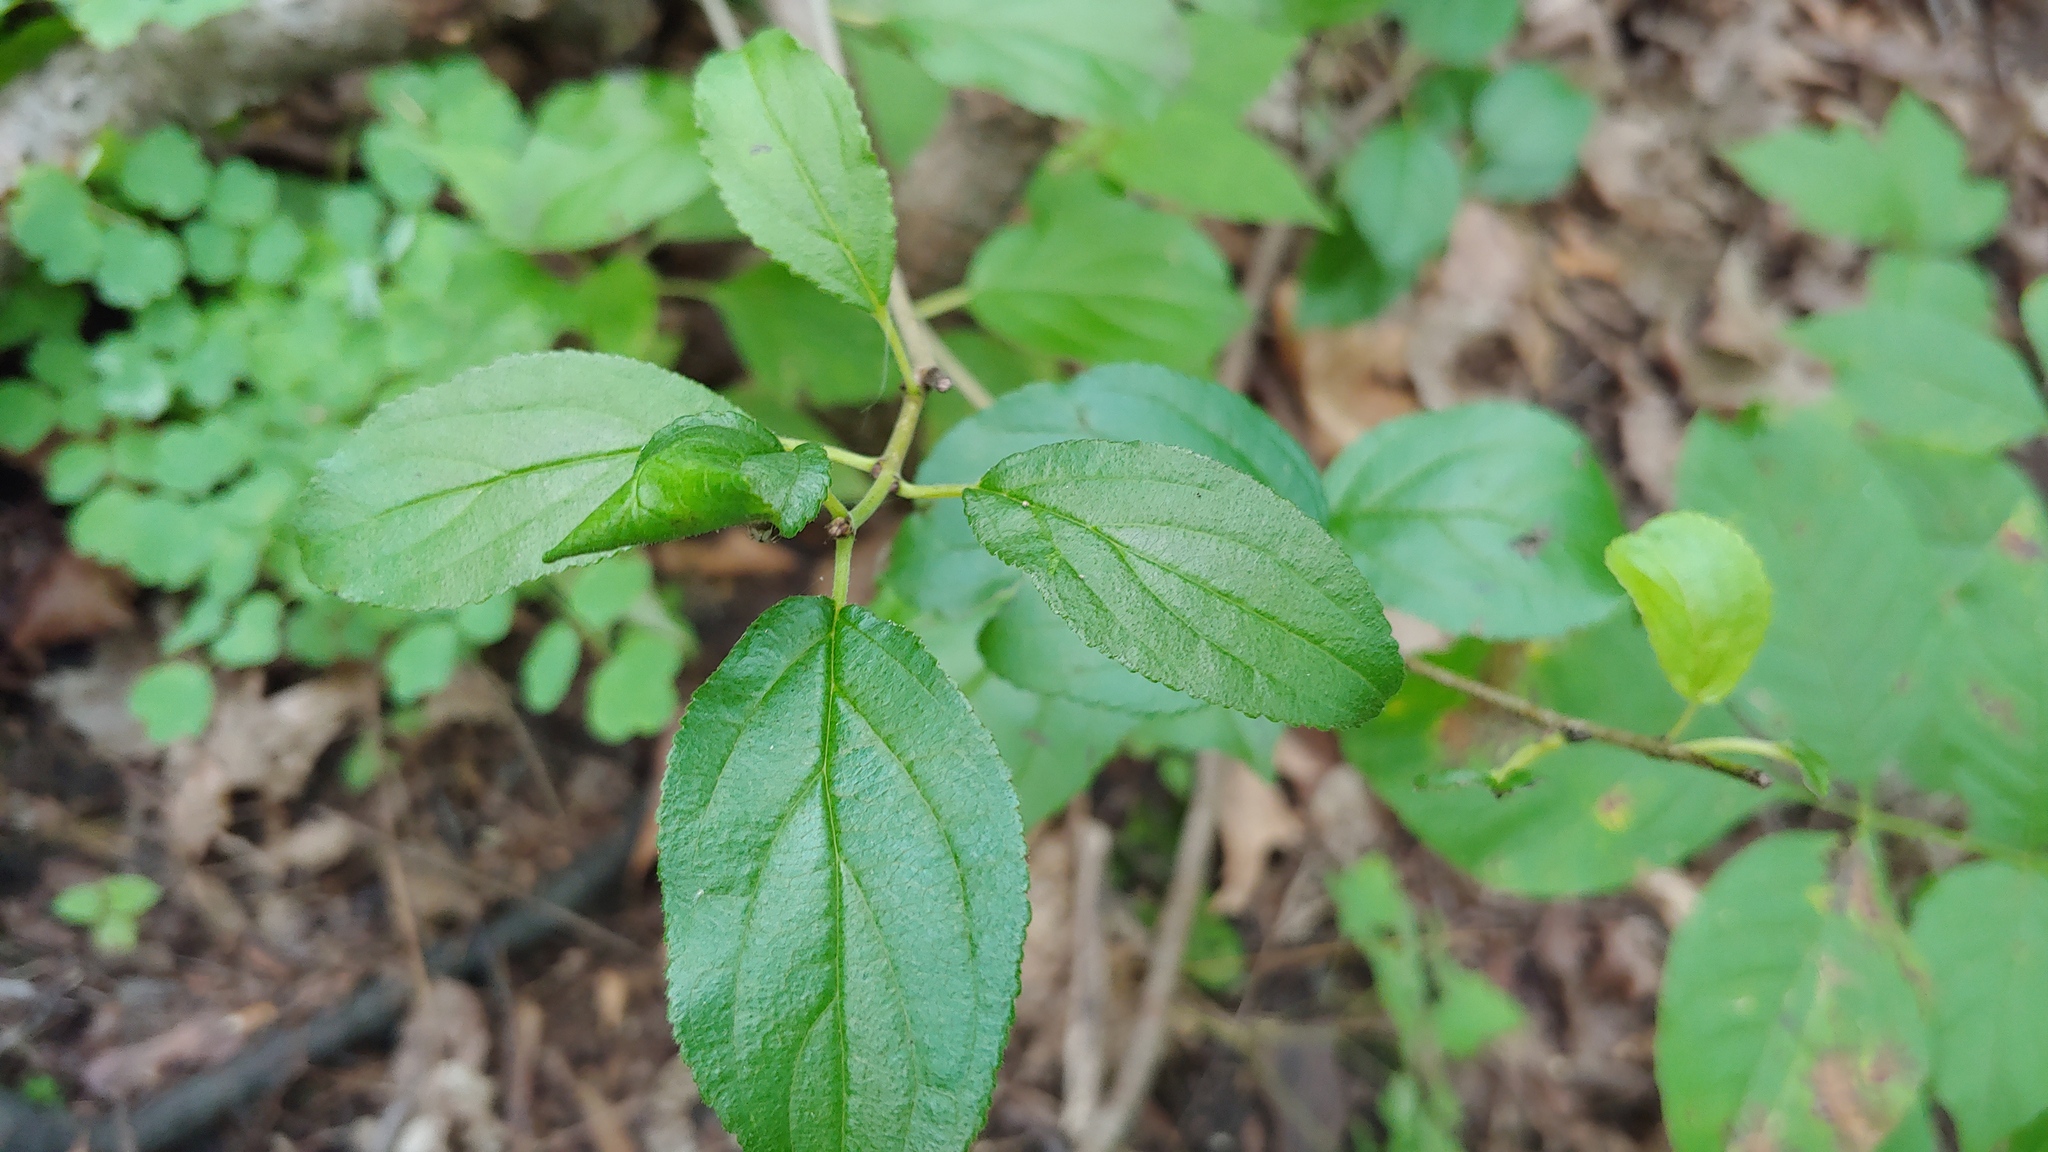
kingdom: Plantae
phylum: Tracheophyta
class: Magnoliopsida
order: Rosales
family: Rhamnaceae
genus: Rhamnus
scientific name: Rhamnus cathartica
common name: Common buckthorn
